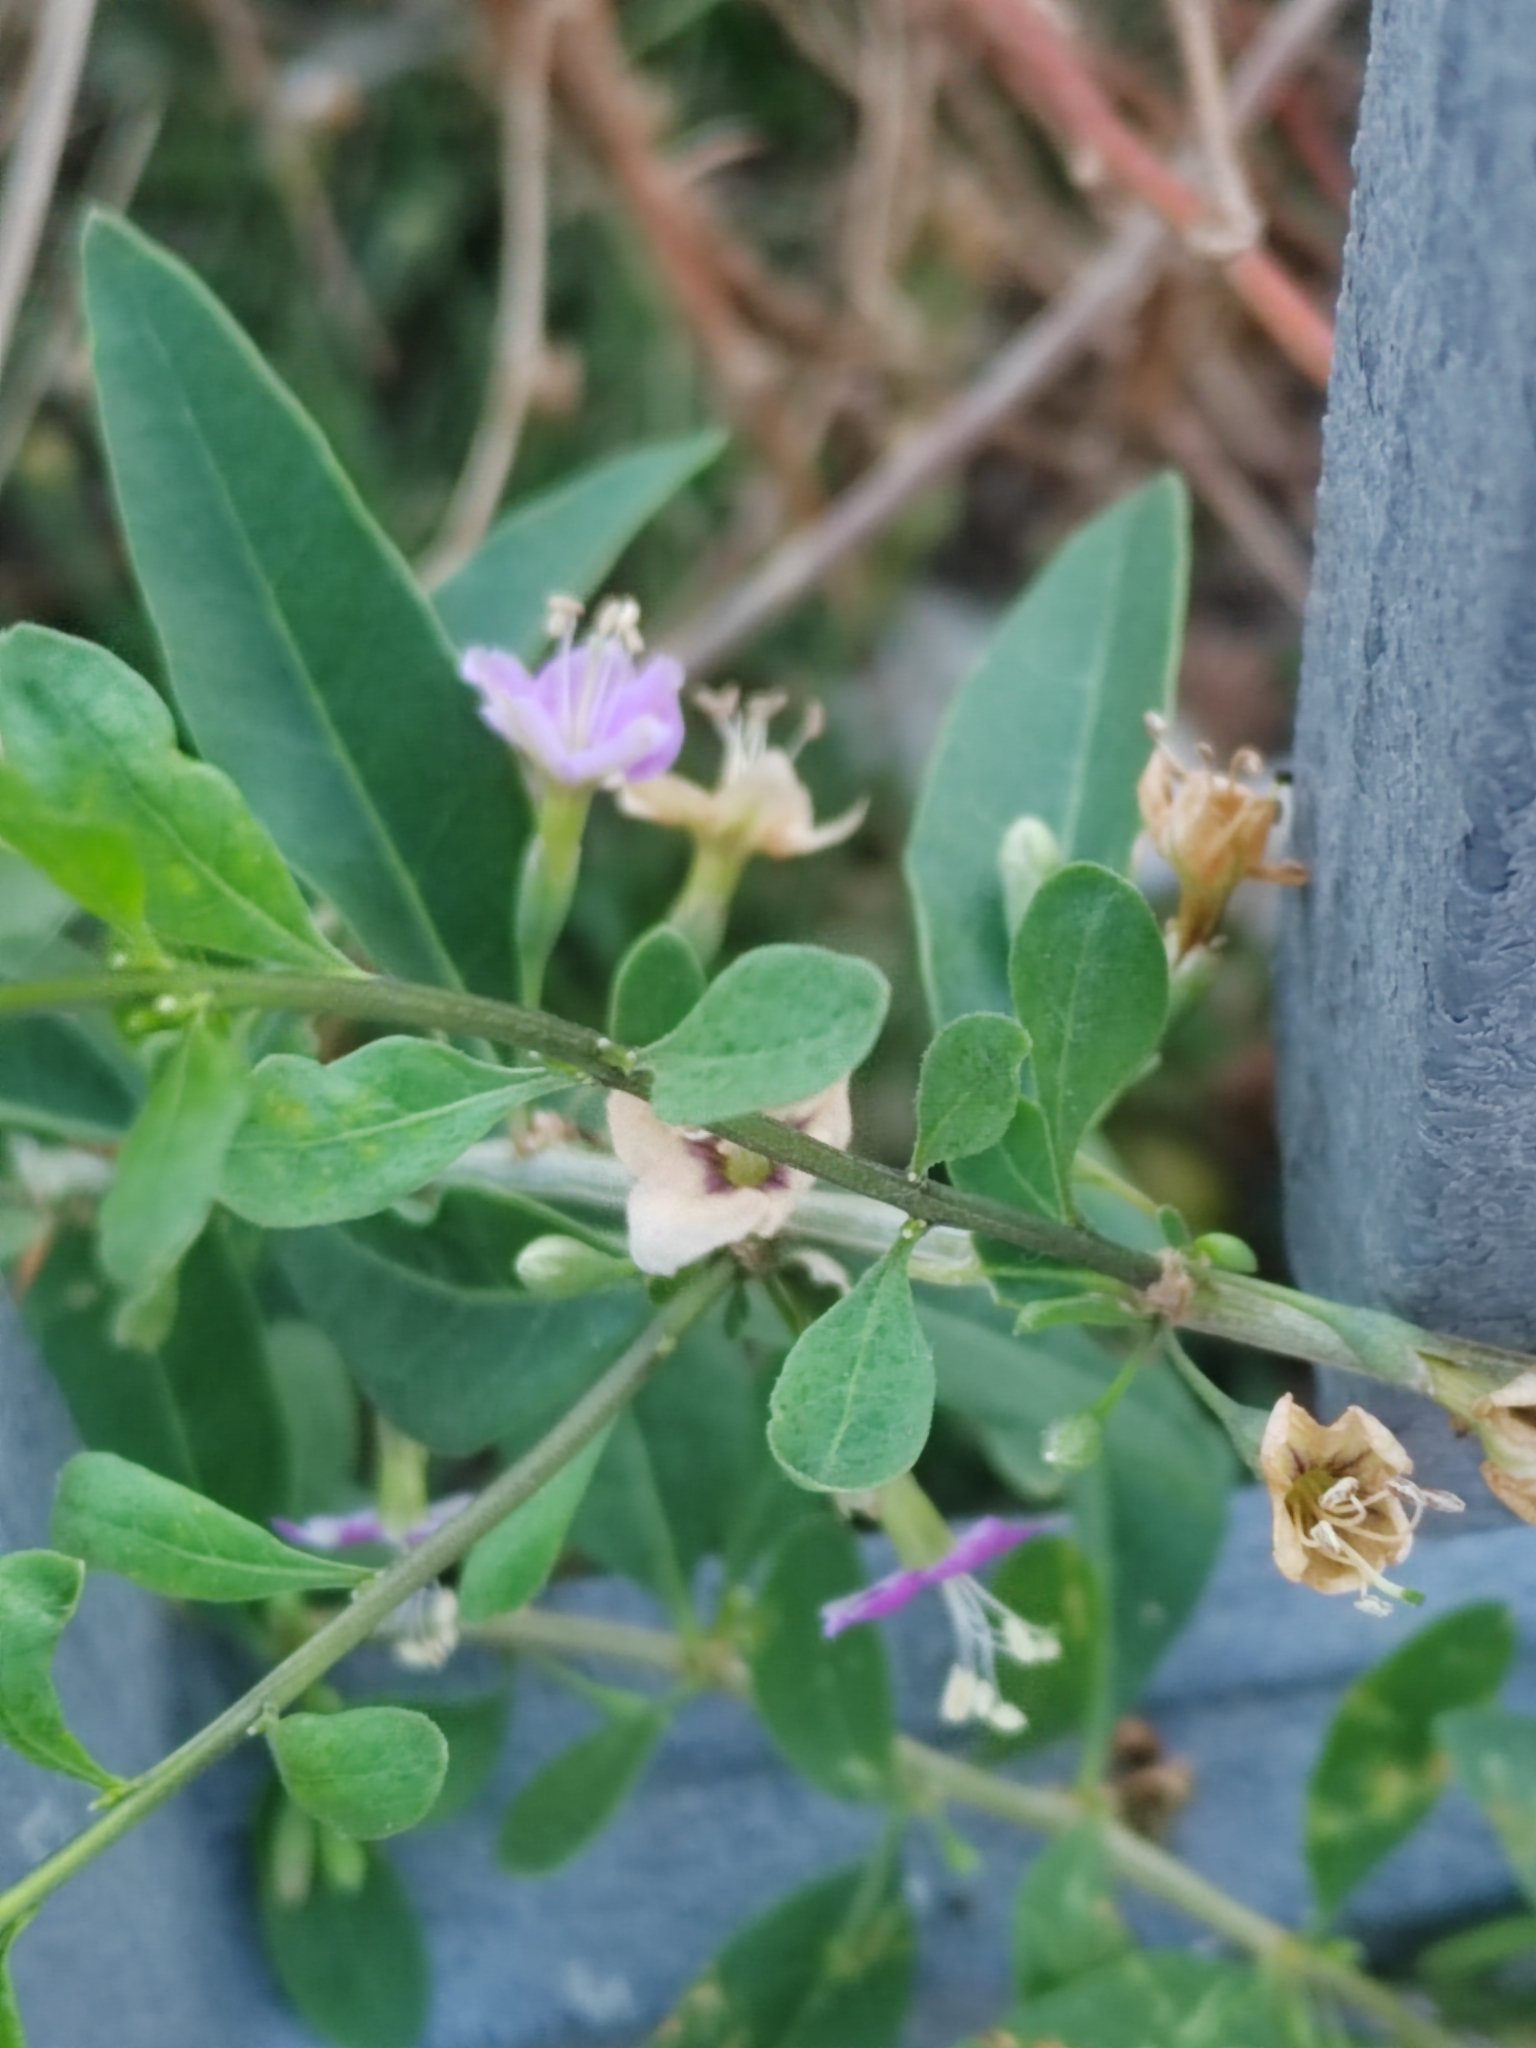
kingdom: Plantae
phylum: Tracheophyta
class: Magnoliopsida
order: Solanales
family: Solanaceae
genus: Lycium
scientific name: Lycium barbarum
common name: Duke of argyll's teaplant
